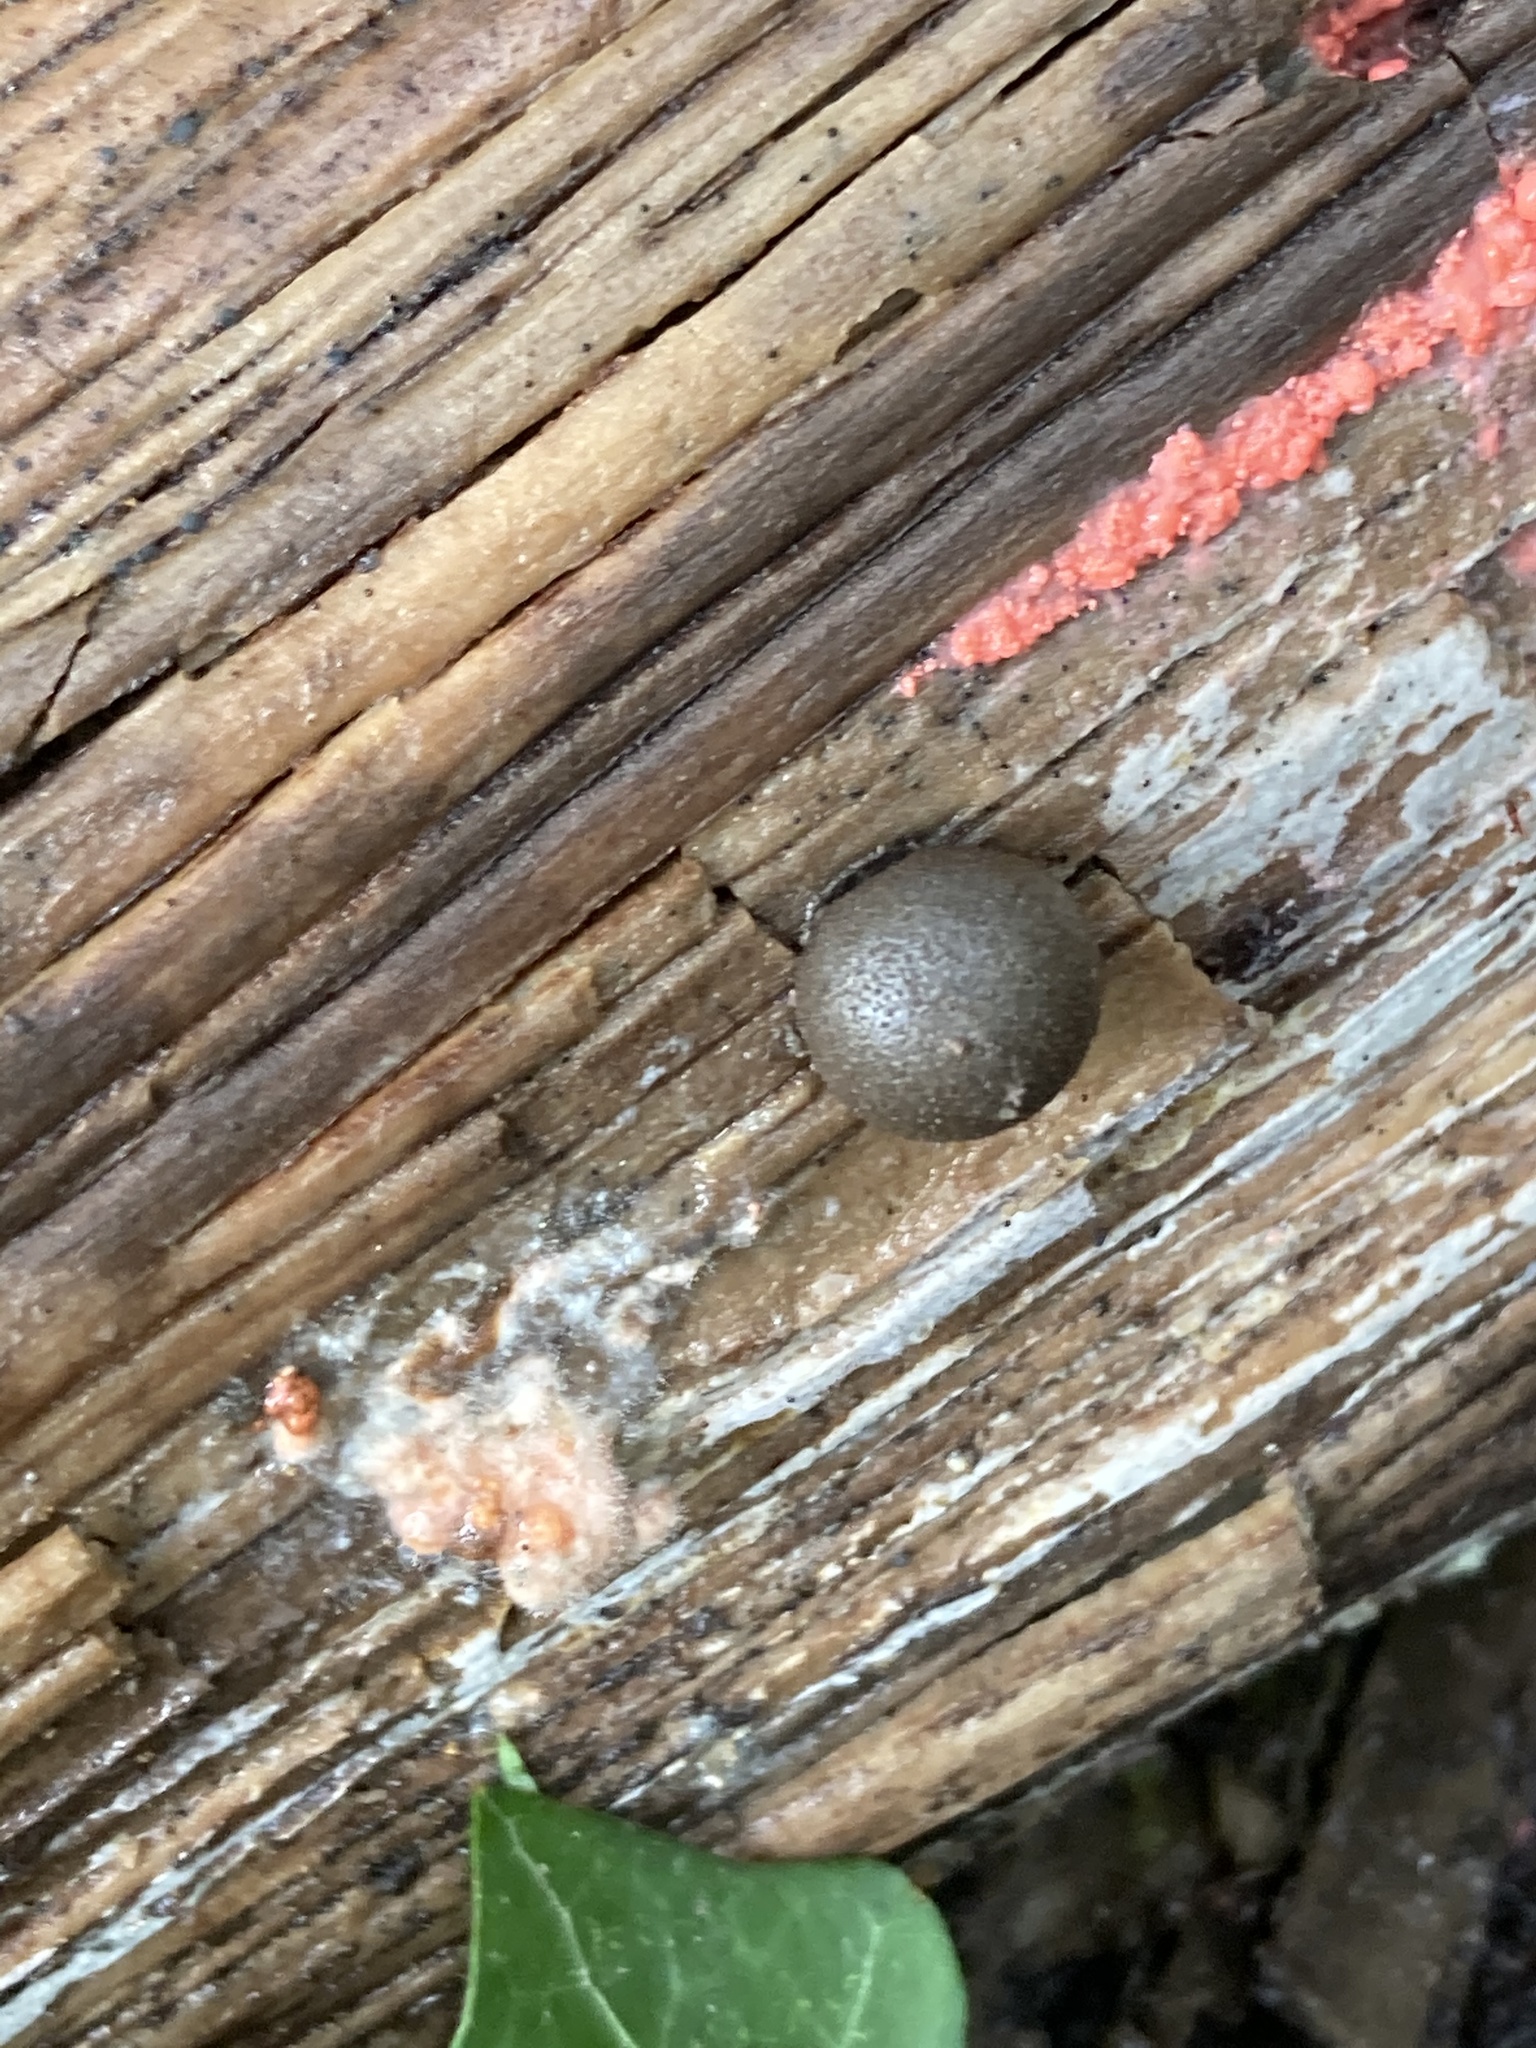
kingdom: Protozoa
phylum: Mycetozoa
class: Myxomycetes
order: Cribrariales
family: Tubiferaceae
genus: Lycogala
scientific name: Lycogala epidendrum
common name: Wolf's milk
